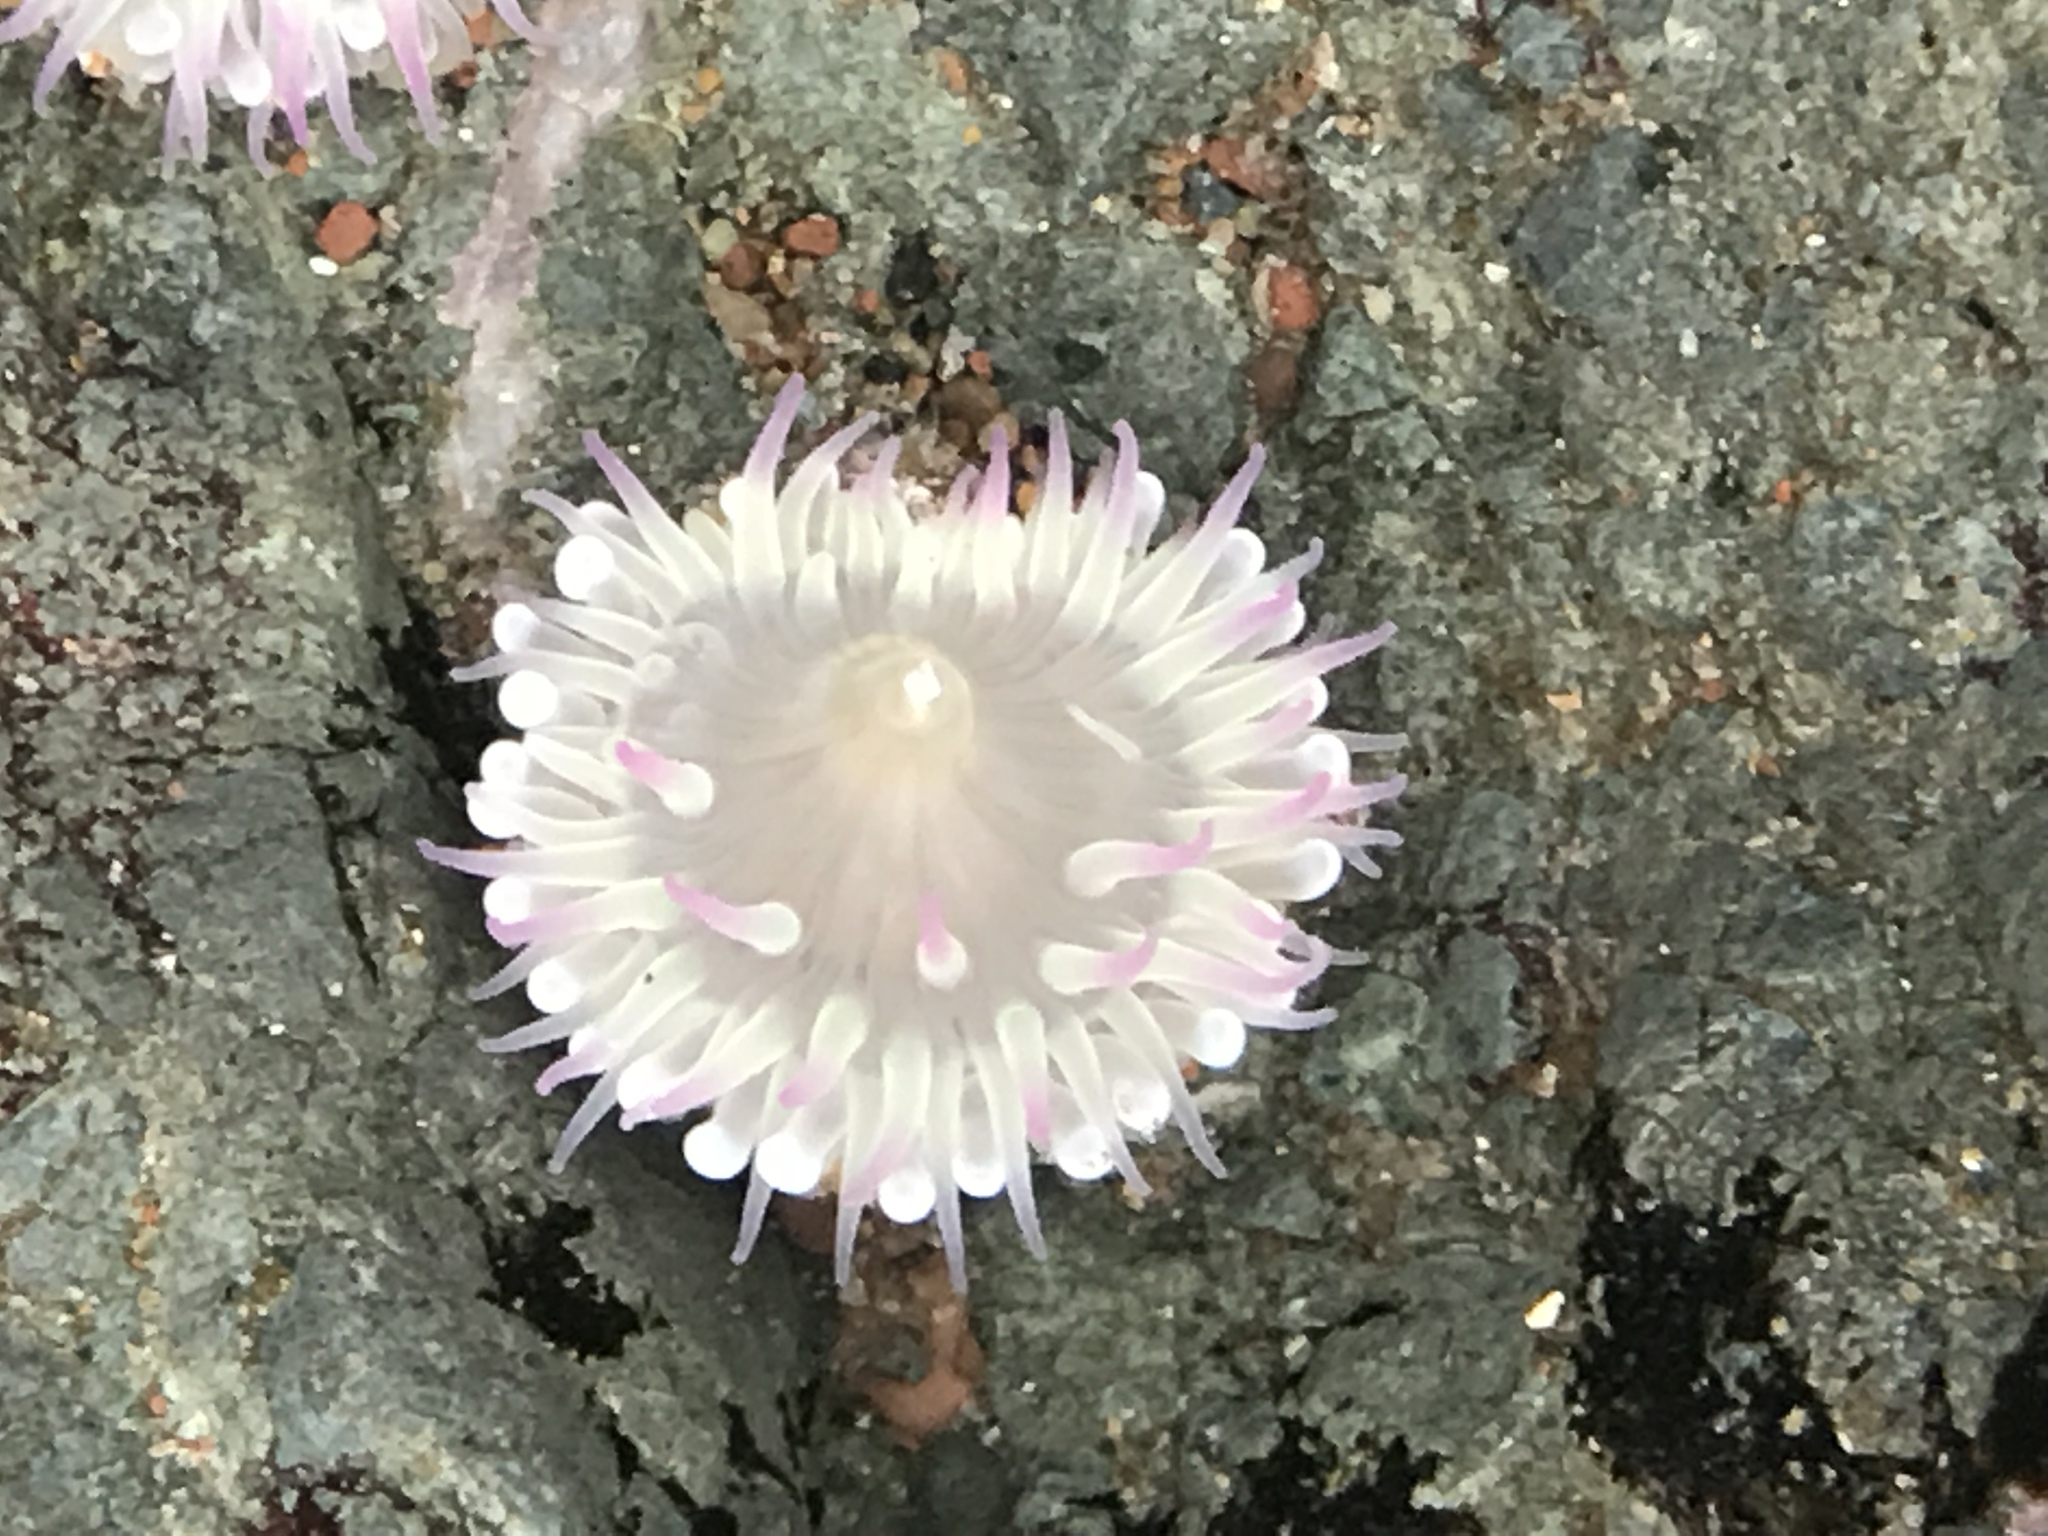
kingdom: Animalia
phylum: Cnidaria
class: Anthozoa
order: Actiniaria
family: Actiniidae
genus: Anthopleura
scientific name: Anthopleura elegantissima
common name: Clonal anemone
